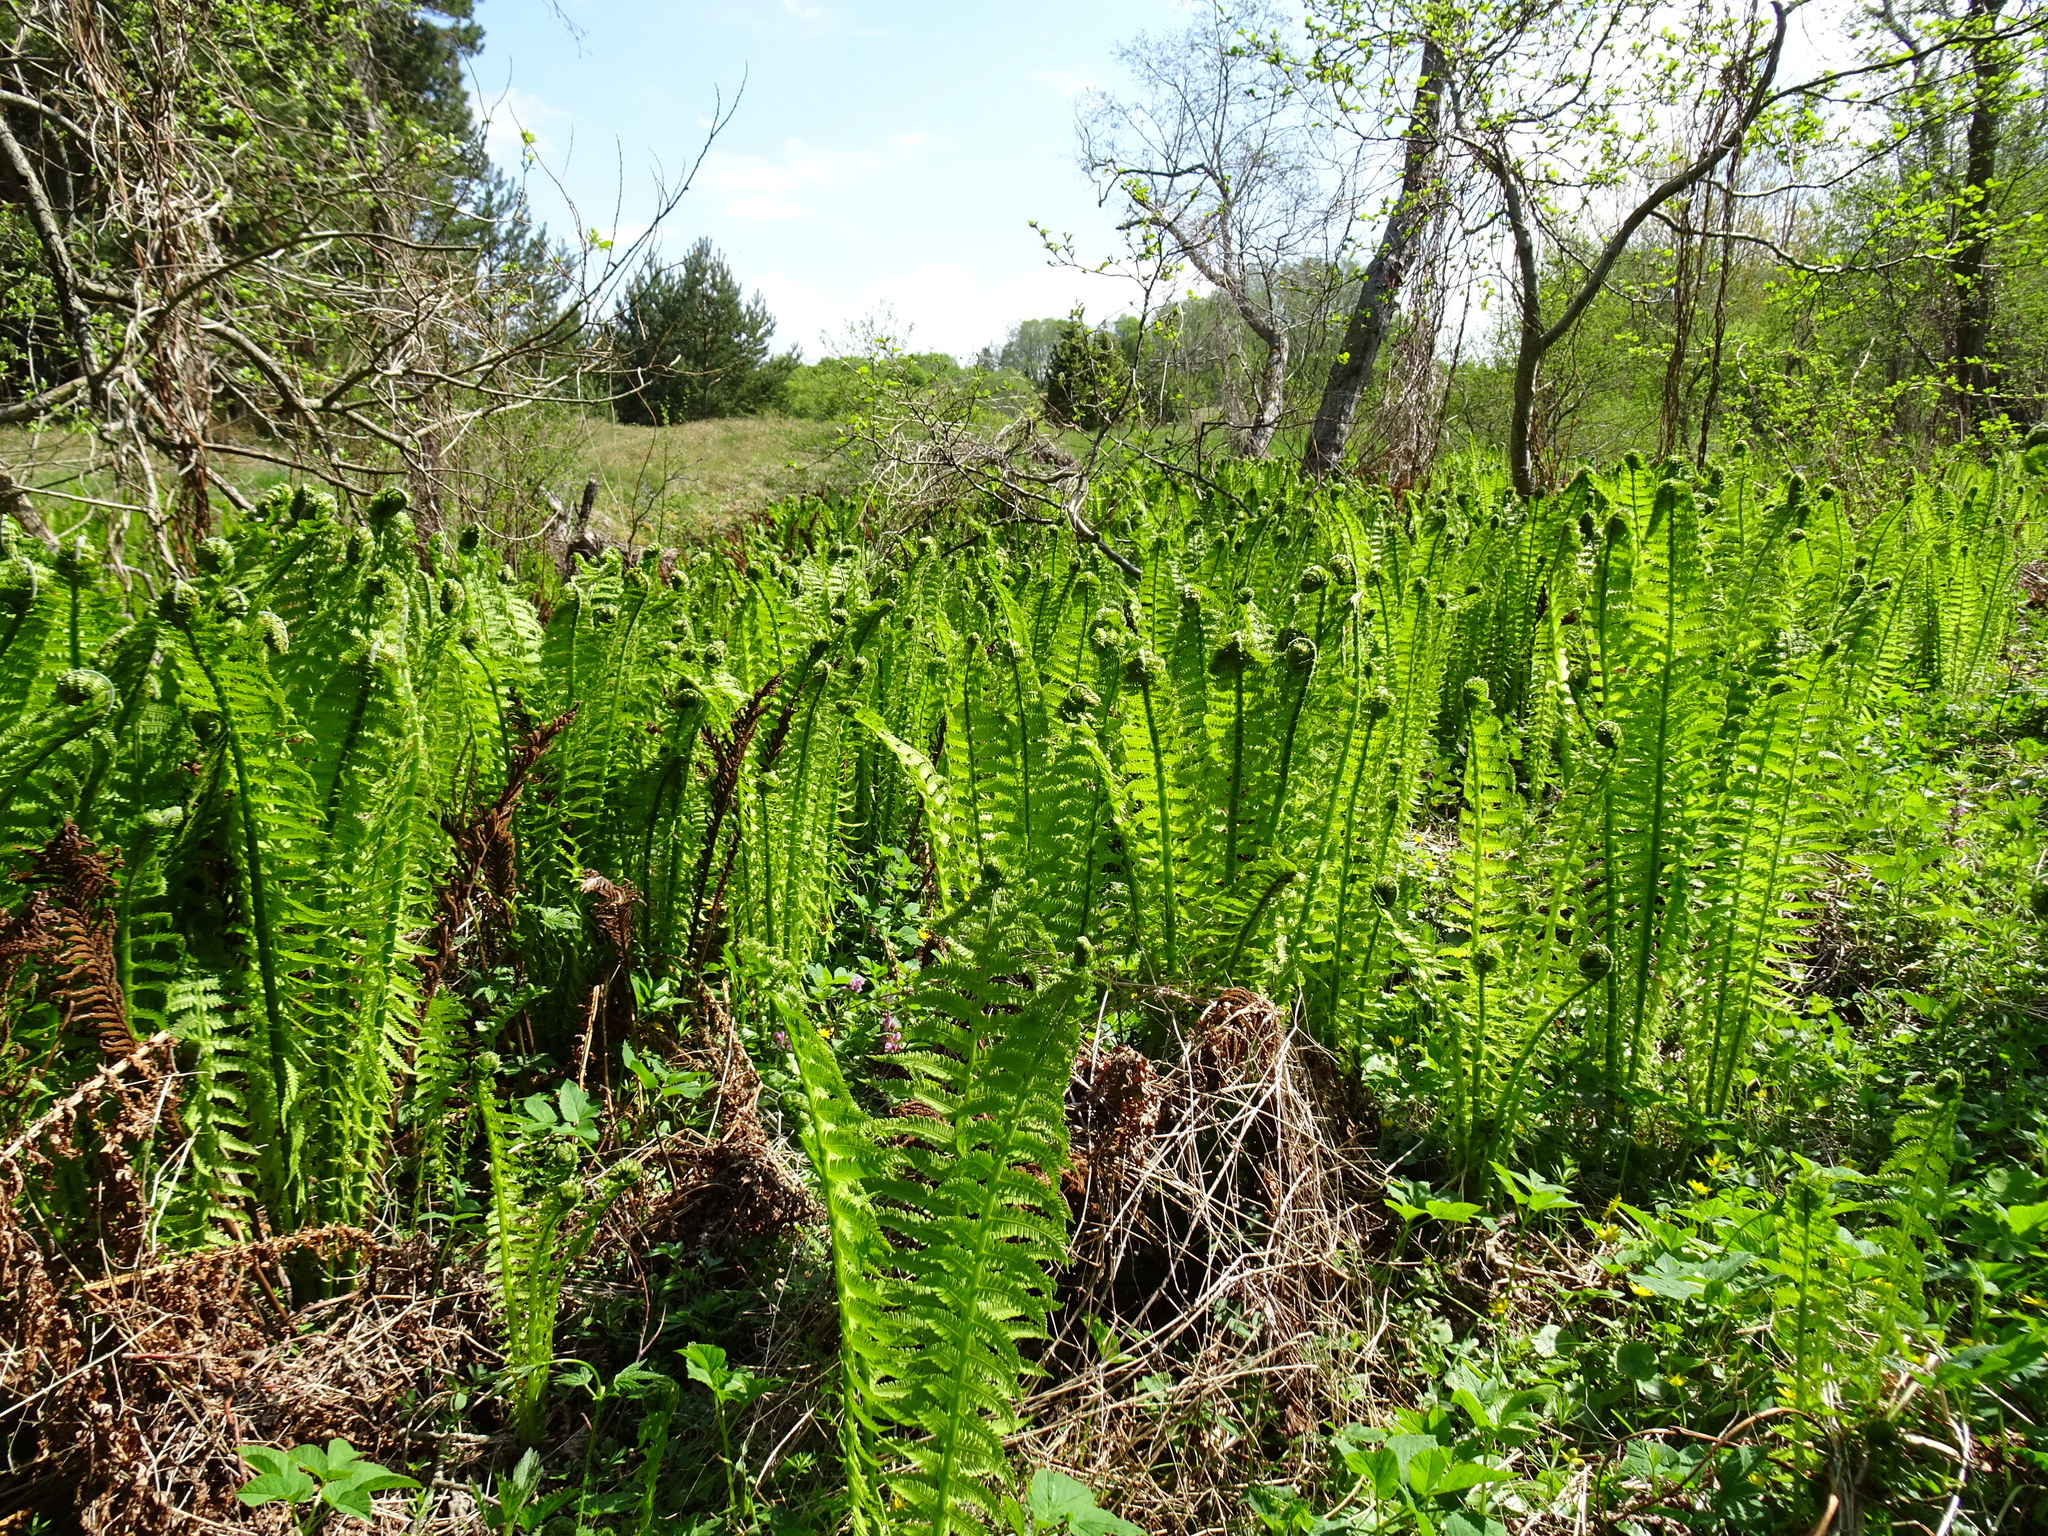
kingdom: Plantae
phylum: Tracheophyta
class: Polypodiopsida
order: Polypodiales
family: Onocleaceae
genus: Matteuccia
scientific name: Matteuccia struthiopteris
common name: Ostrich fern
